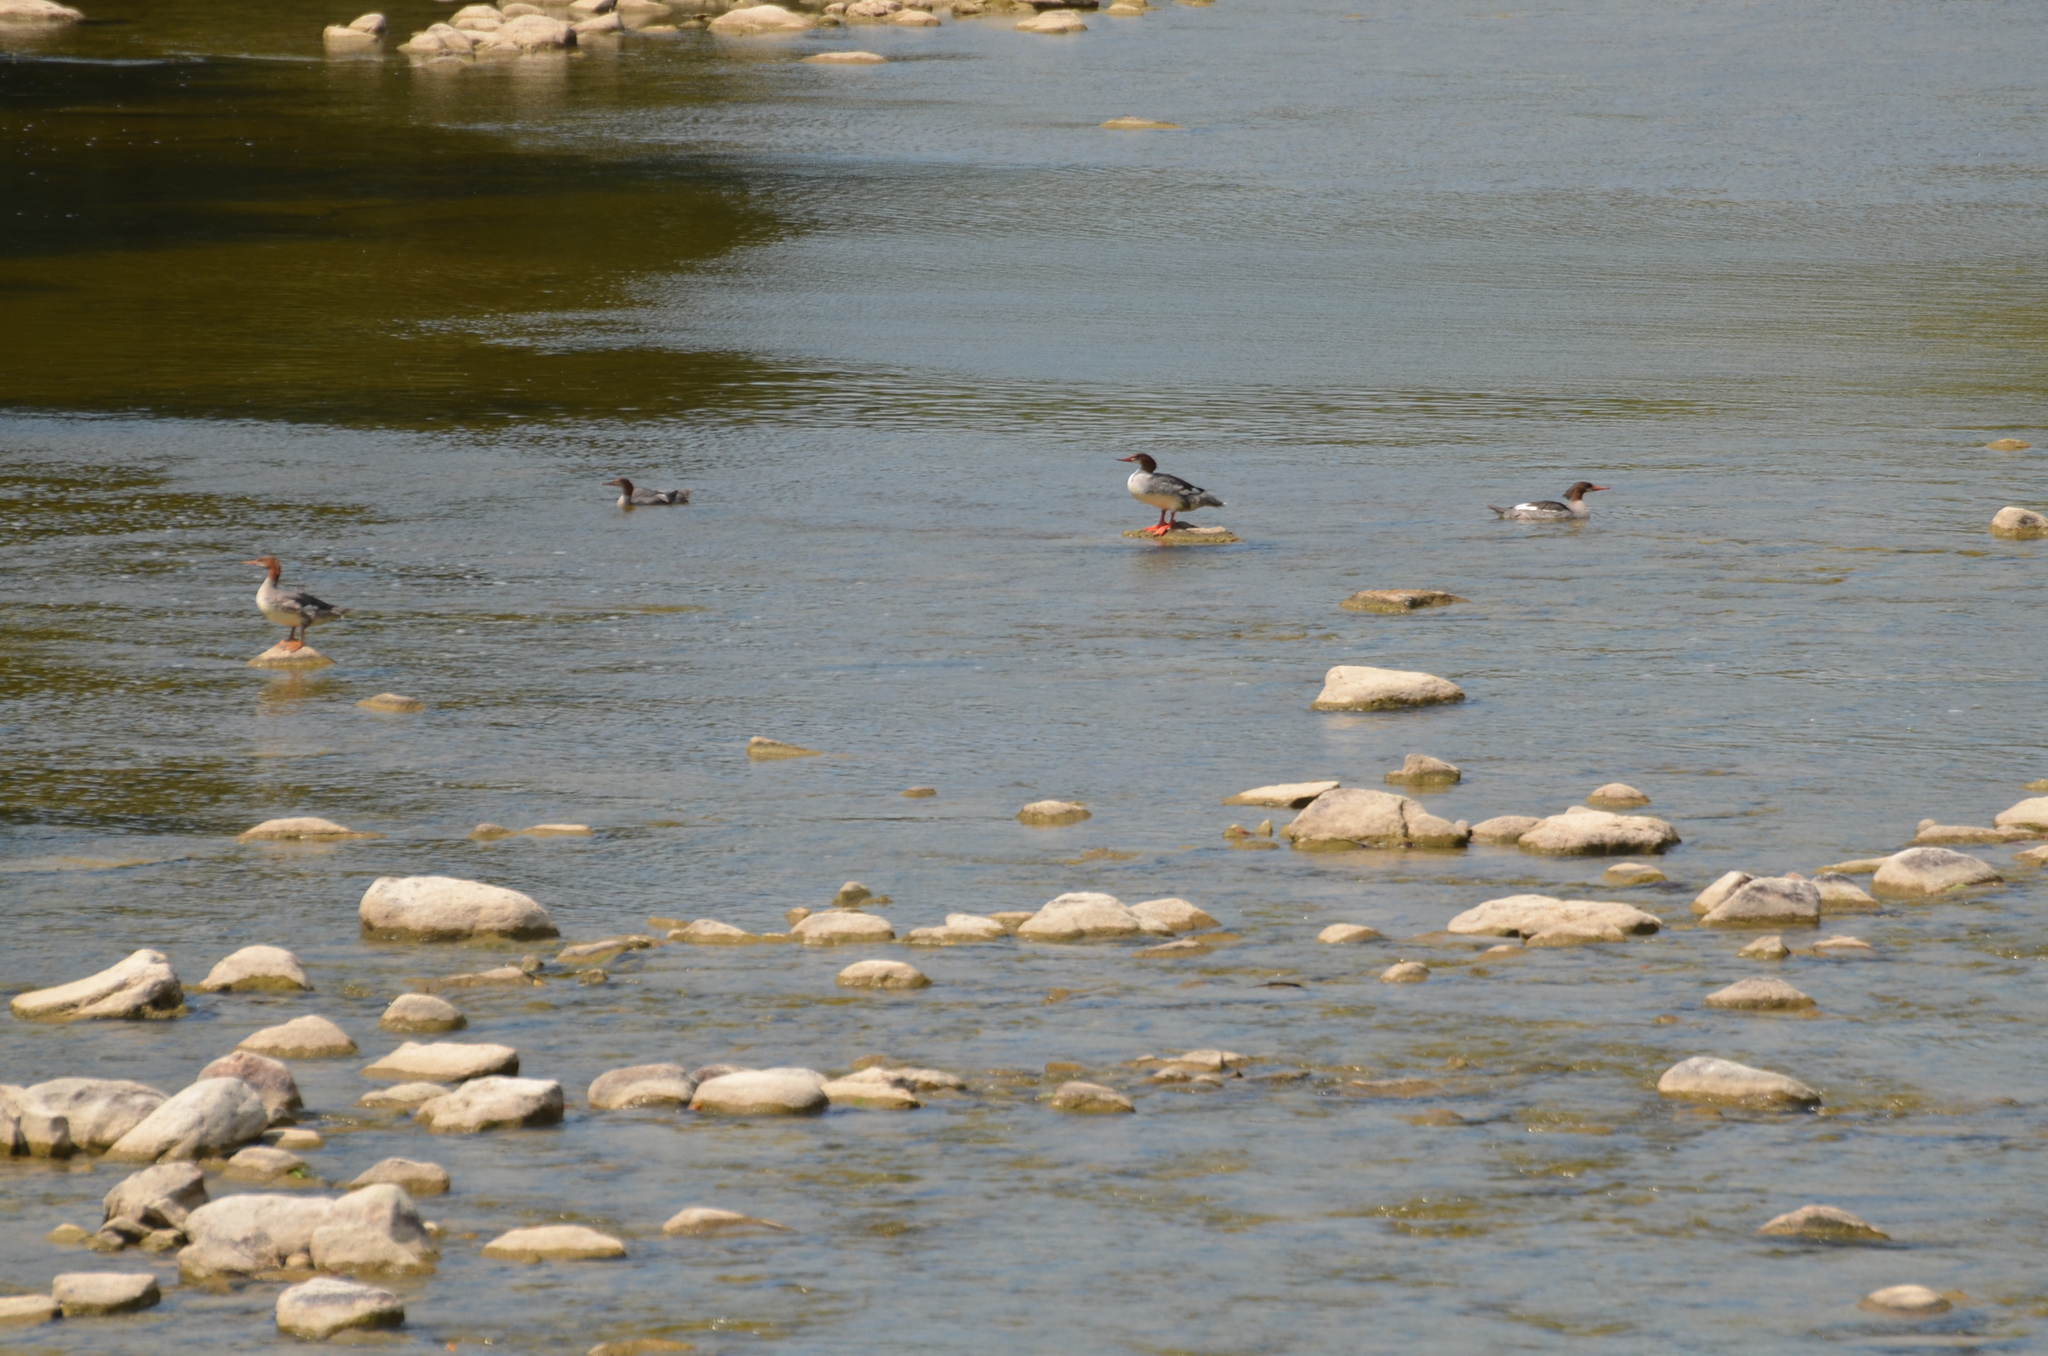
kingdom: Animalia
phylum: Chordata
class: Aves
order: Anseriformes
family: Anatidae
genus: Mergus
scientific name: Mergus merganser
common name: Common merganser
